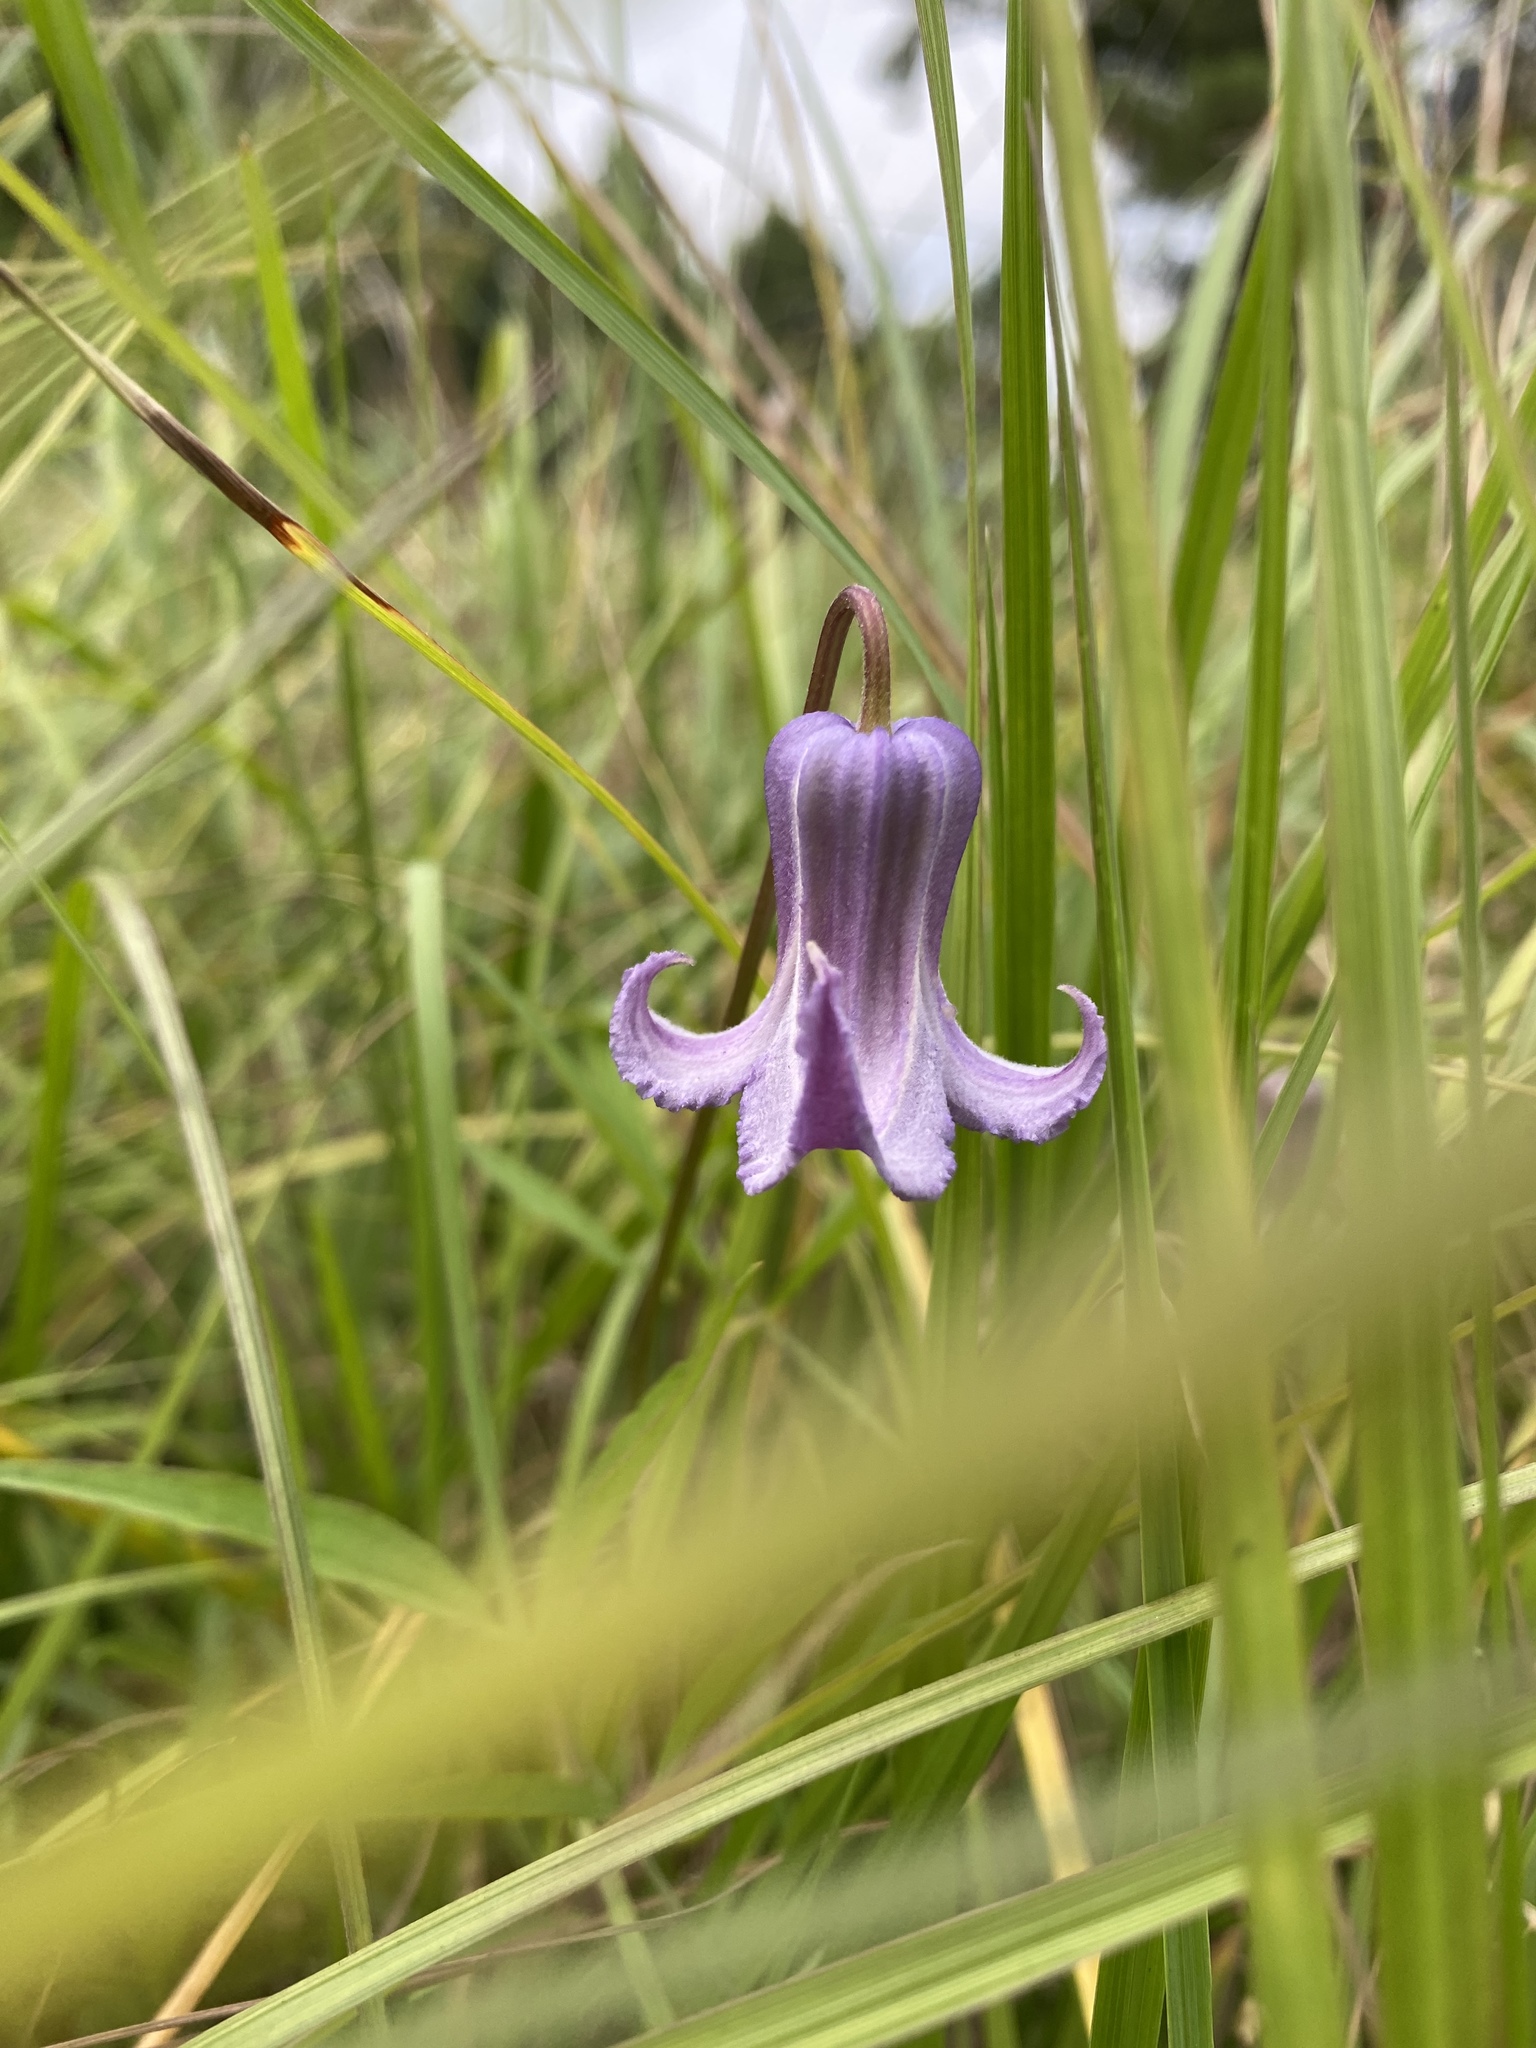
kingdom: Plantae
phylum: Tracheophyta
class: Magnoliopsida
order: Ranunculales
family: Ranunculaceae
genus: Clematis
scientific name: Clematis crispa
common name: Curly clematis
